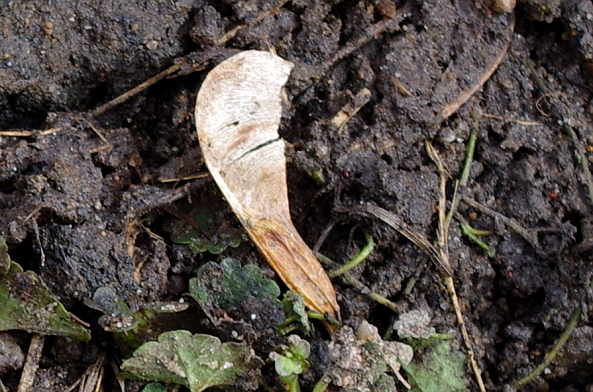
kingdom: Plantae
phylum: Tracheophyta
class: Magnoliopsida
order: Sapindales
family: Sapindaceae
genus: Acer
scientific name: Acer negundo
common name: Ashleaf maple
